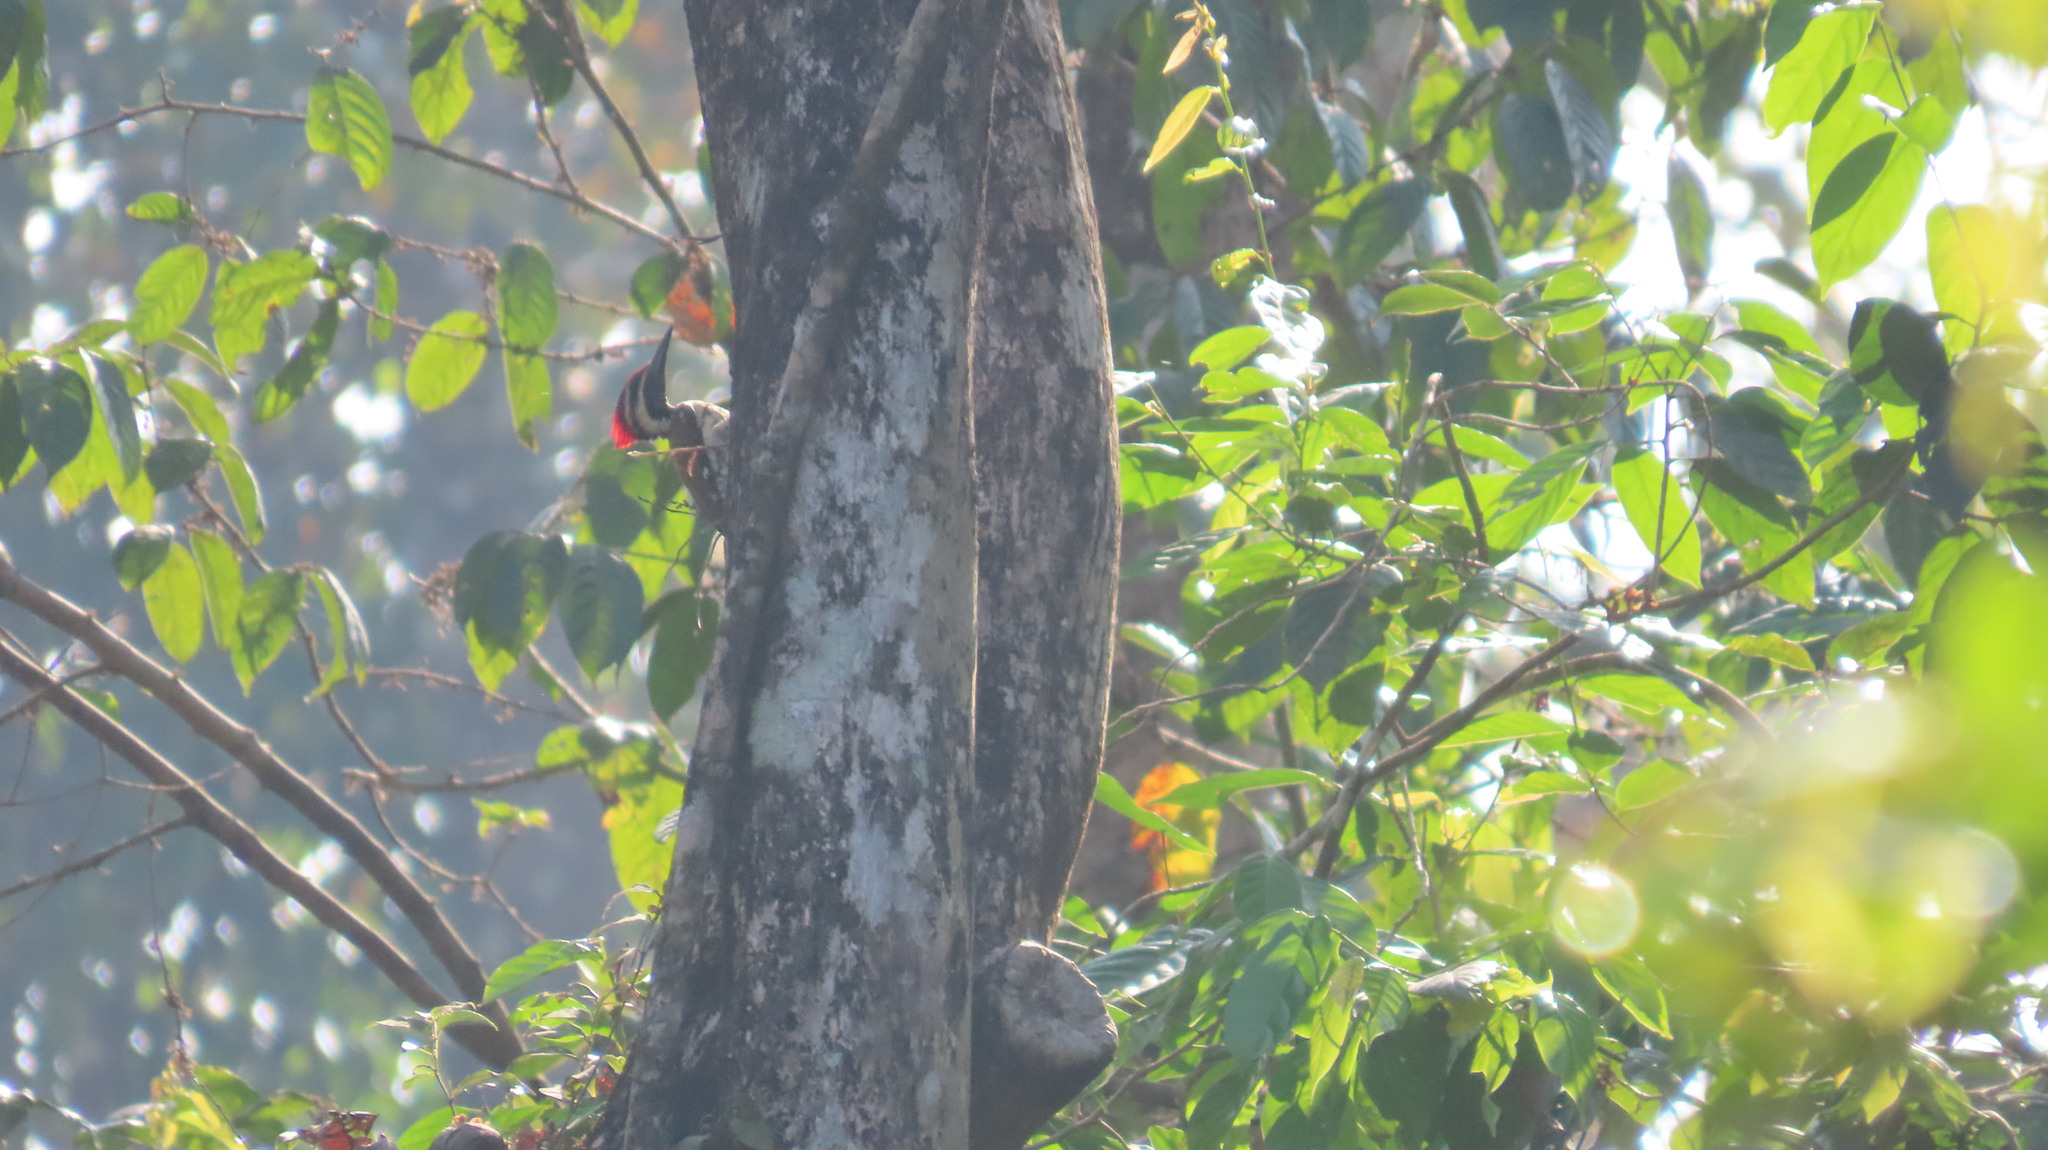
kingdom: Animalia
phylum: Chordata
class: Aves
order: Piciformes
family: Picidae
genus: Dinopium
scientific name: Dinopium benghalense
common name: Black-rumped flameback
